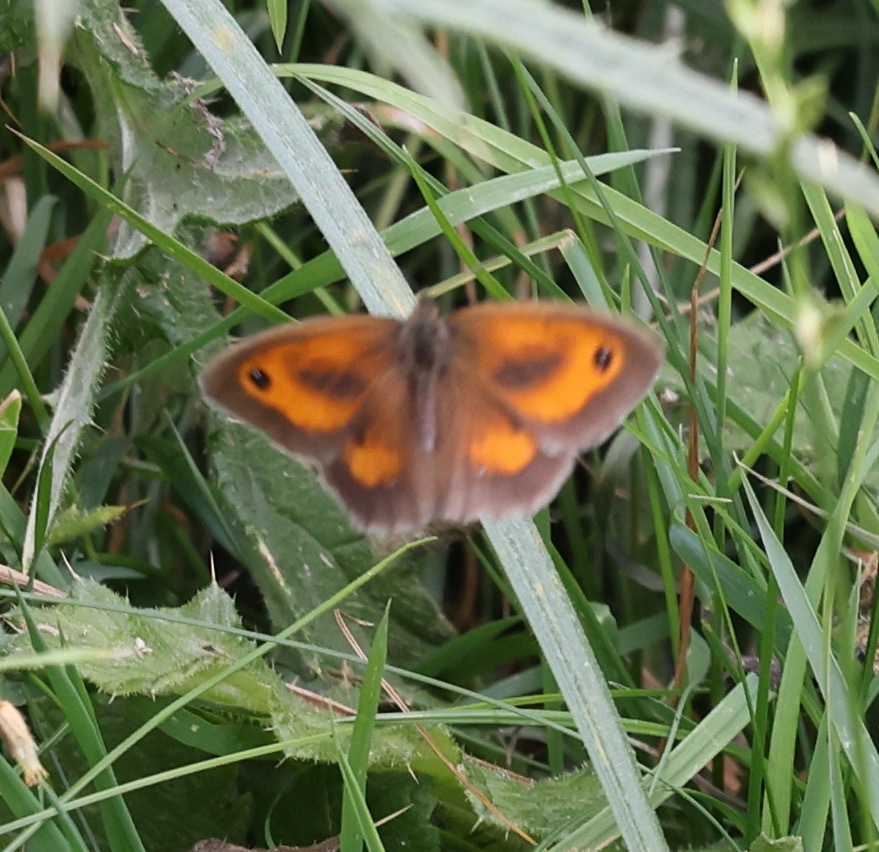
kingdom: Animalia
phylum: Arthropoda
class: Insecta
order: Lepidoptera
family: Nymphalidae
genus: Pyronia
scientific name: Pyronia tithonus
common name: Gatekeeper
